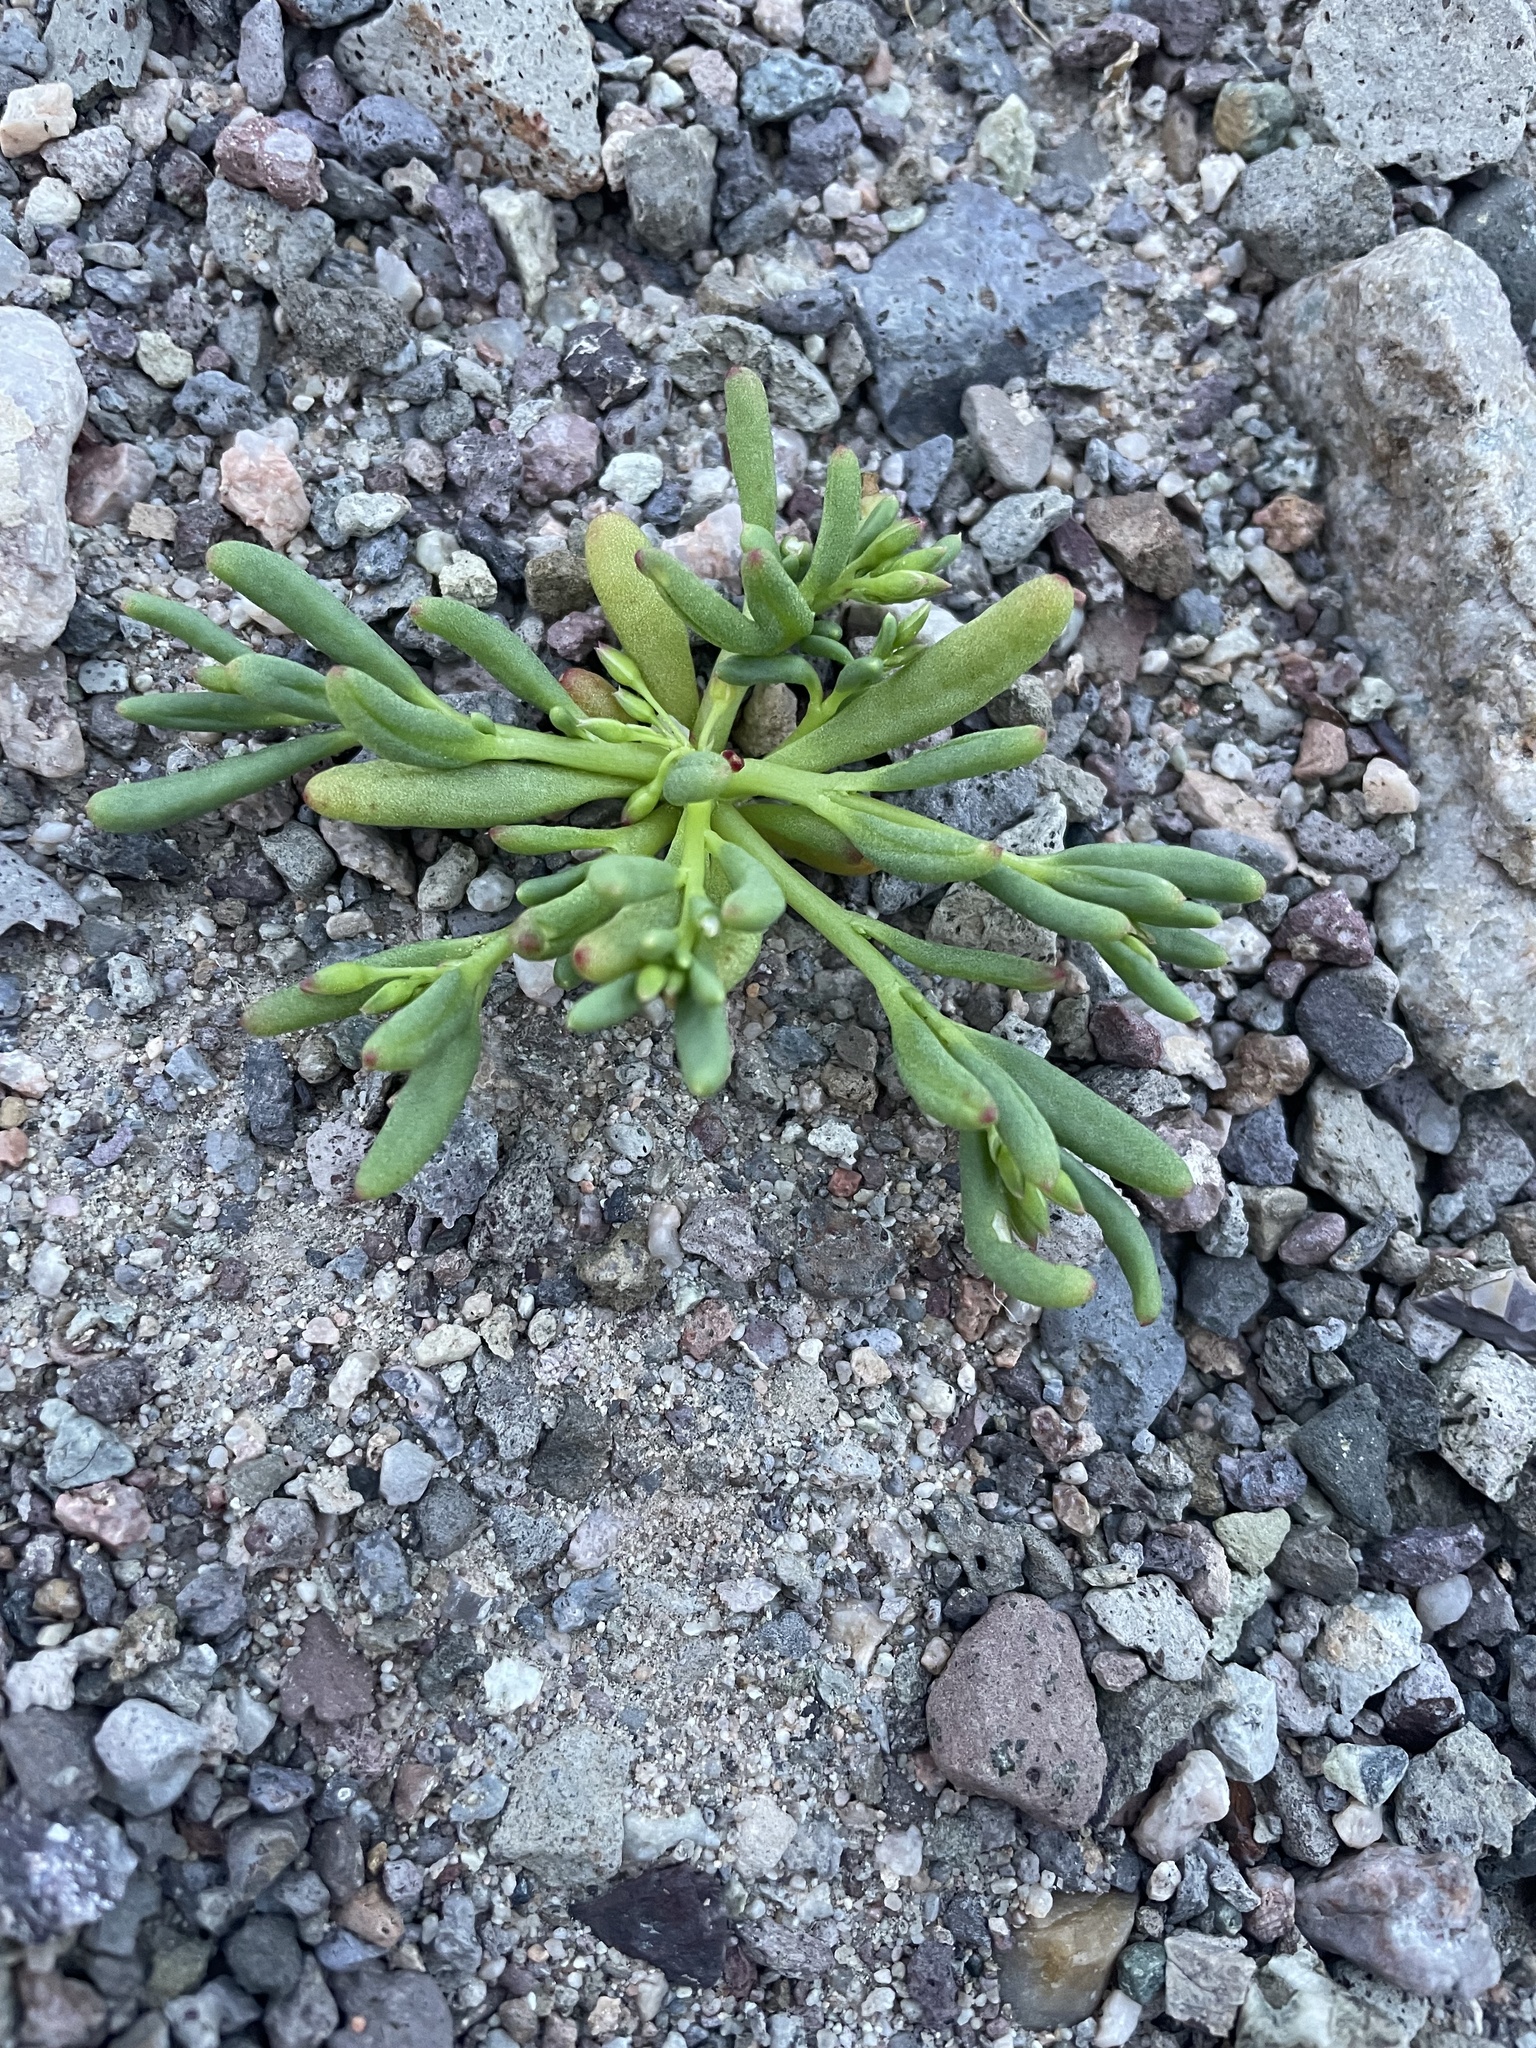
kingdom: Plantae
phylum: Tracheophyta
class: Magnoliopsida
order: Caryophyllales
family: Montiaceae
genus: Thingia
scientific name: Thingia ambigua
